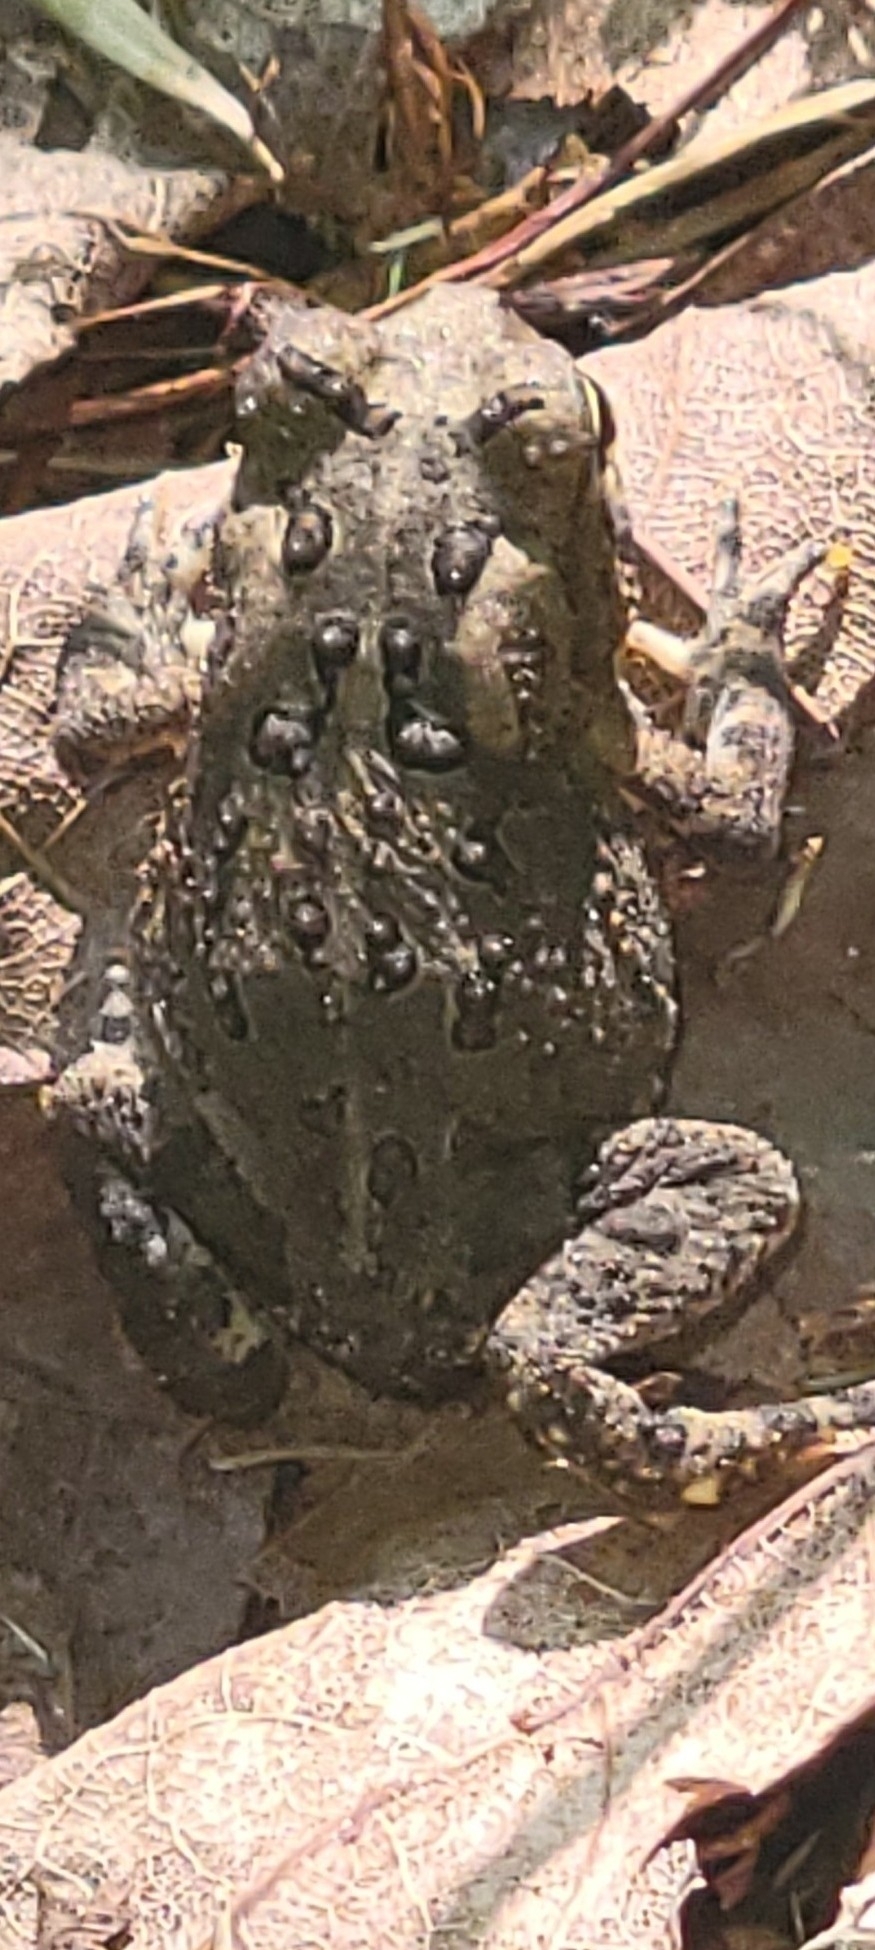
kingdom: Animalia
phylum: Chordata
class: Amphibia
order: Anura
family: Bufonidae
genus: Anaxyrus
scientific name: Anaxyrus americanus
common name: American toad
